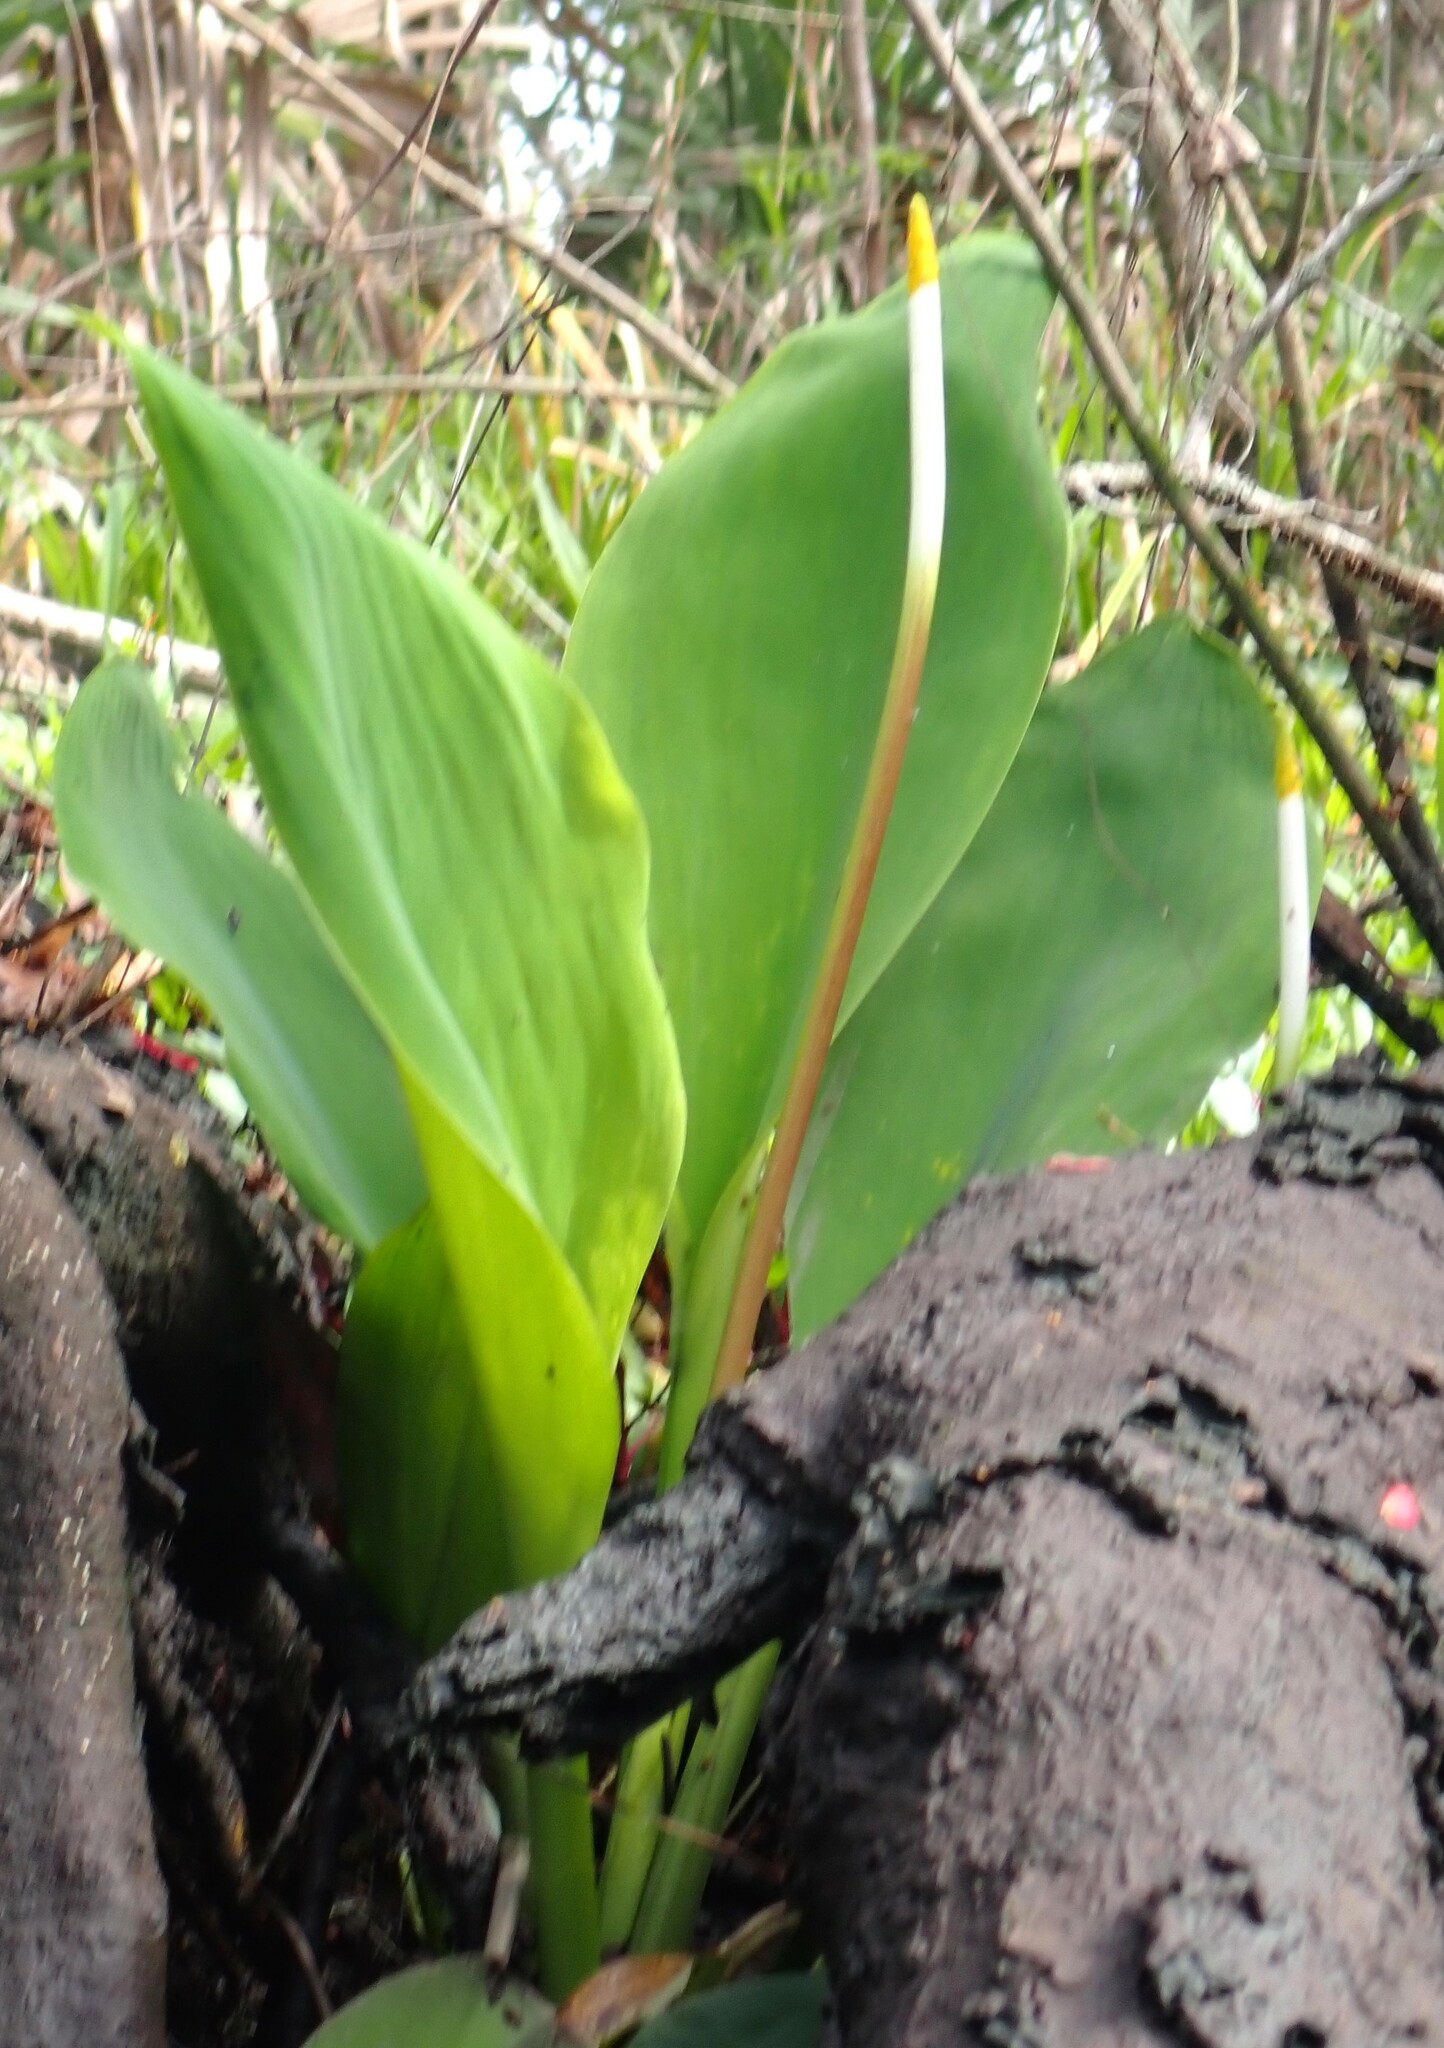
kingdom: Plantae
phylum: Tracheophyta
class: Liliopsida
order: Alismatales
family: Araceae
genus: Orontium
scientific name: Orontium aquaticum
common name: Golden-club
